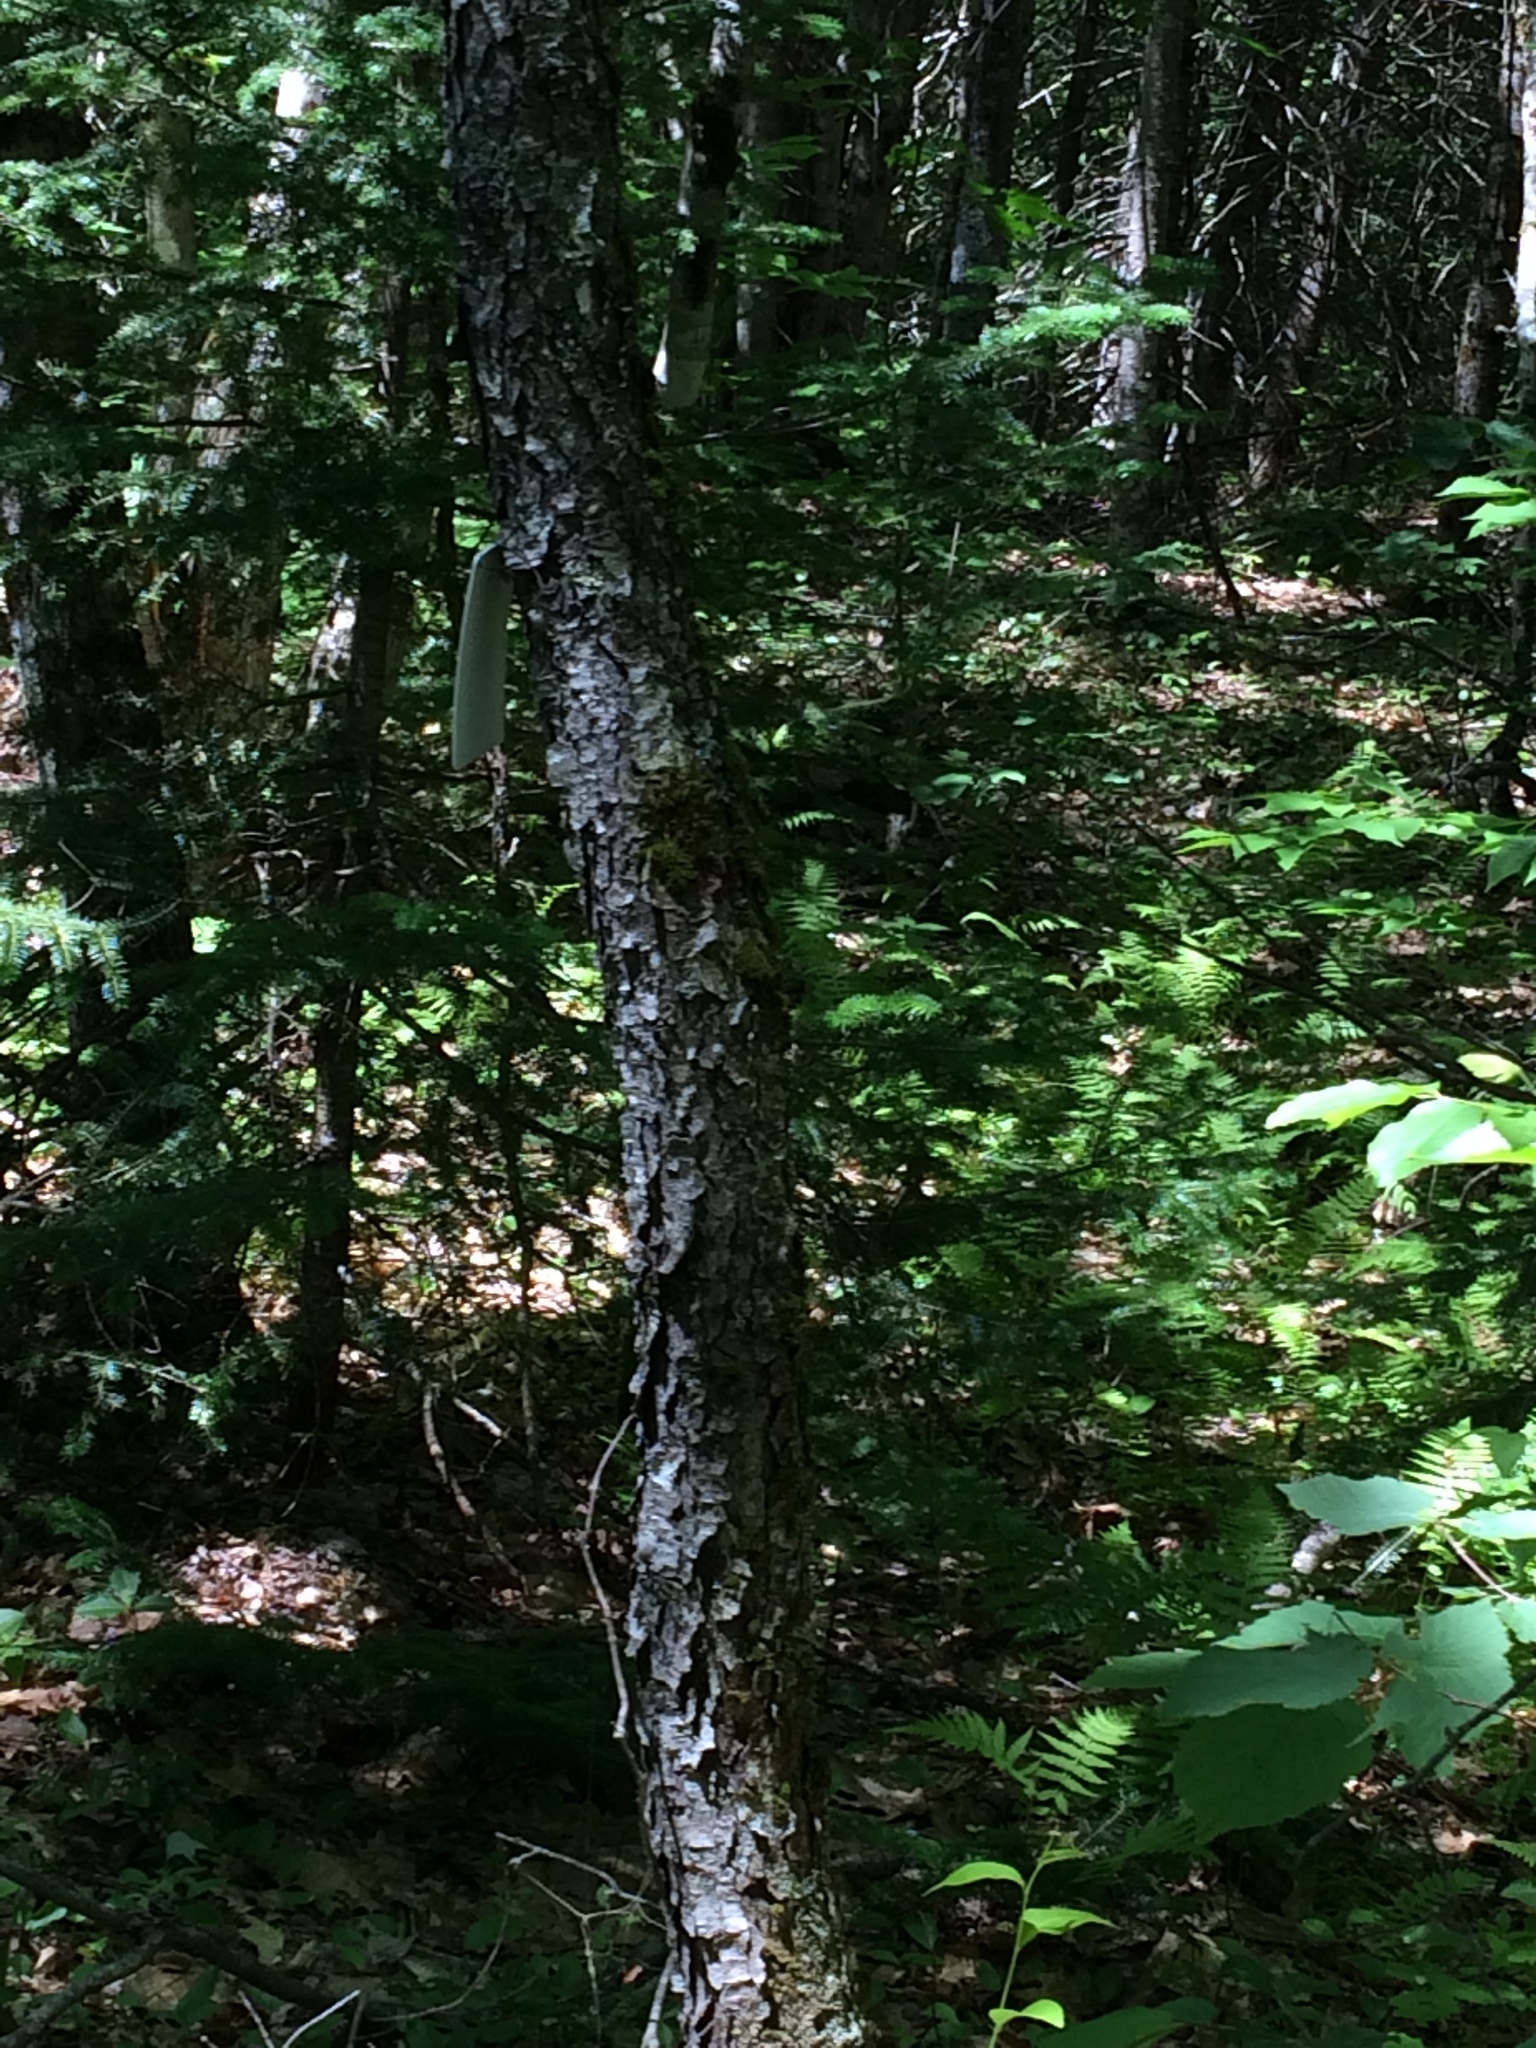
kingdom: Plantae
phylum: Tracheophyta
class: Magnoliopsida
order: Rosales
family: Rosaceae
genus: Prunus
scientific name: Prunus serotina
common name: Black cherry
